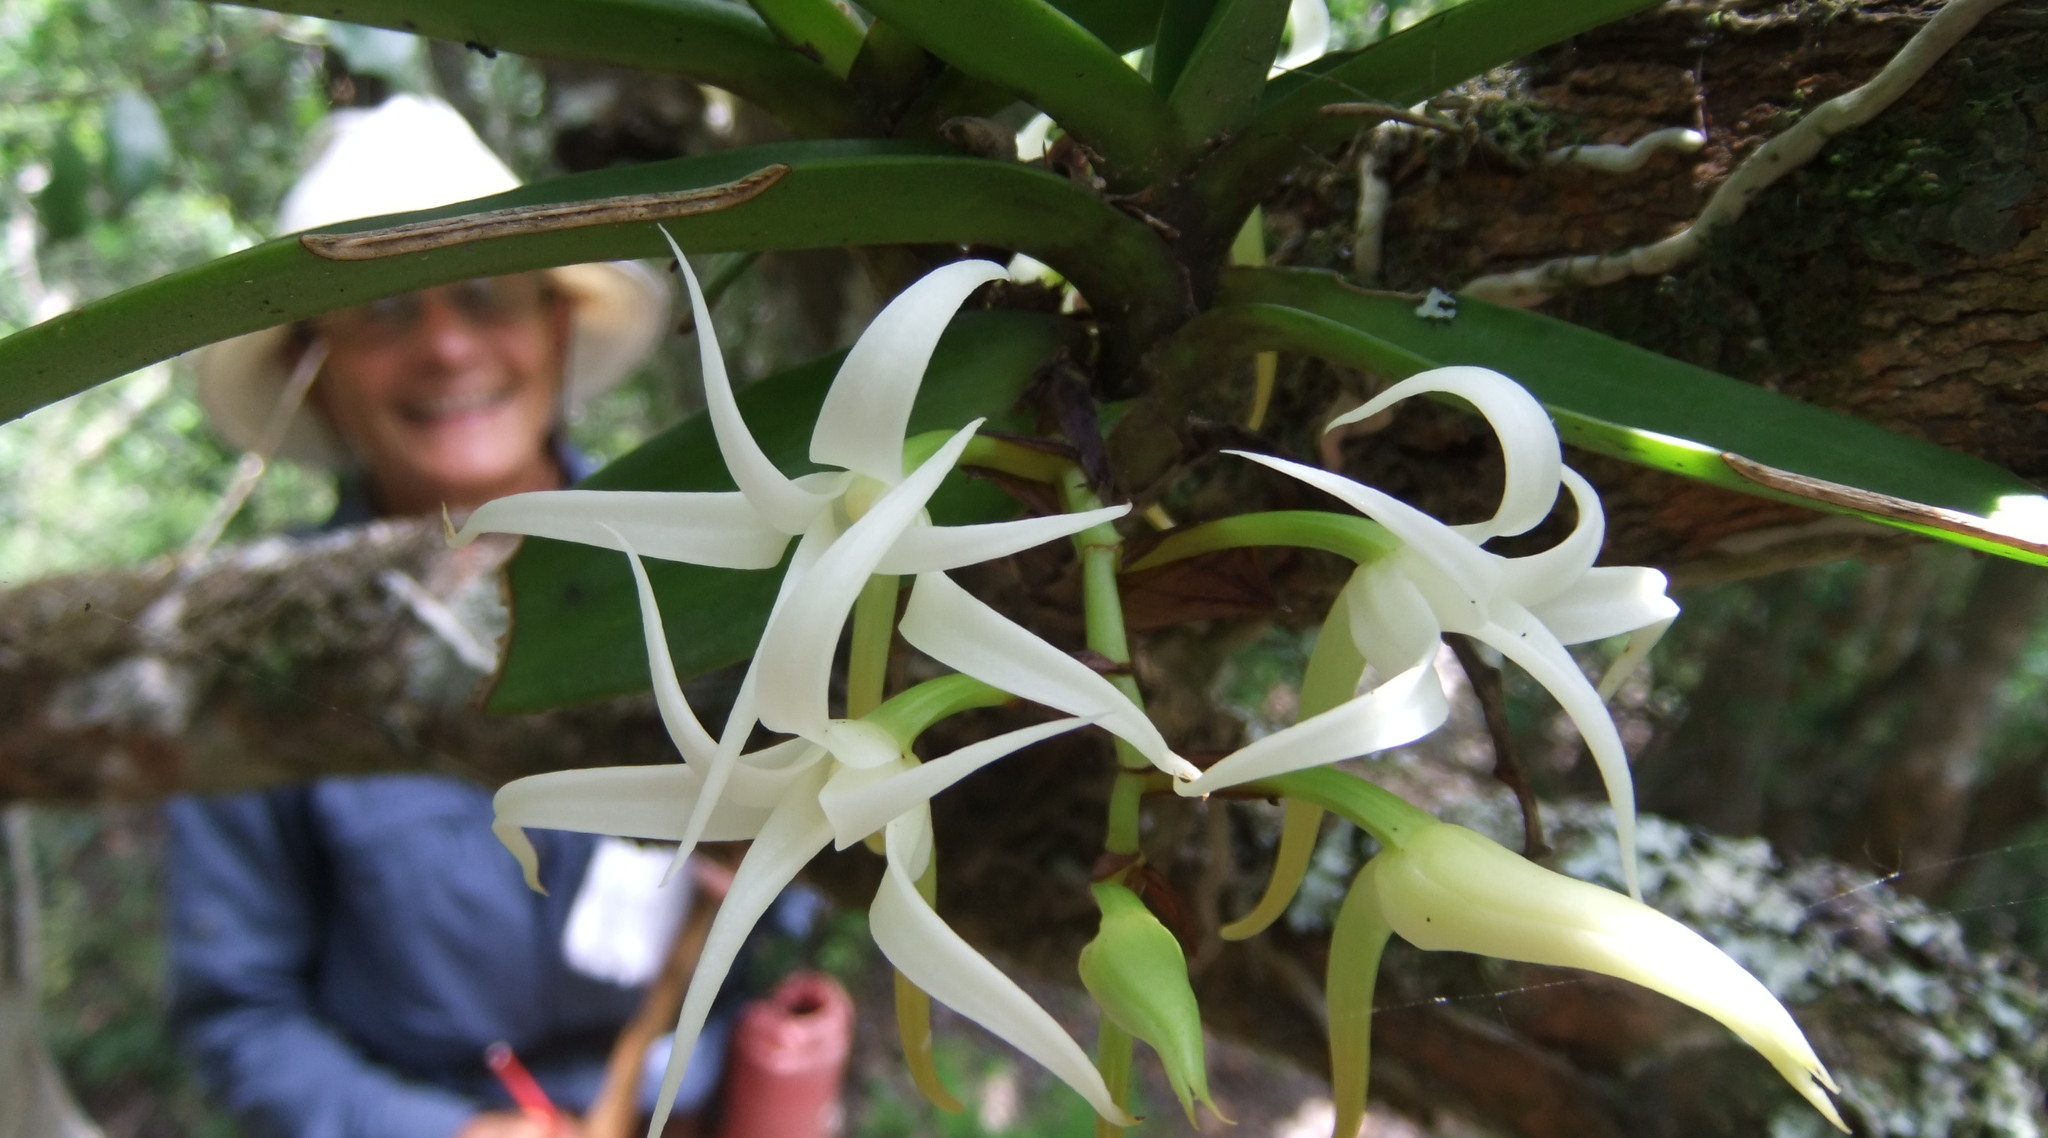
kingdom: Plantae
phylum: Tracheophyta
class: Liliopsida
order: Asparagales
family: Orchidaceae
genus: Cyrtorchis
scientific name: Cyrtorchis arcuata
